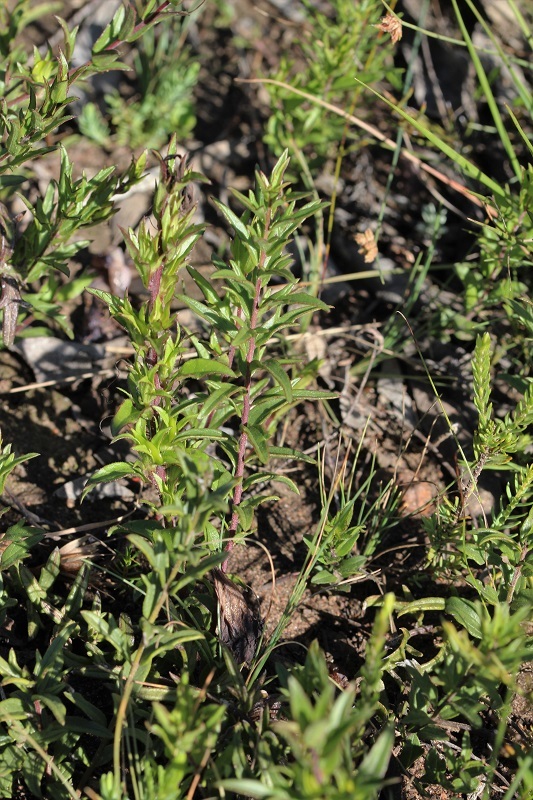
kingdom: Plantae
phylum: Tracheophyta
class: Magnoliopsida
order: Lamiales
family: Orobanchaceae
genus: Graderia
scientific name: Graderia scabra
